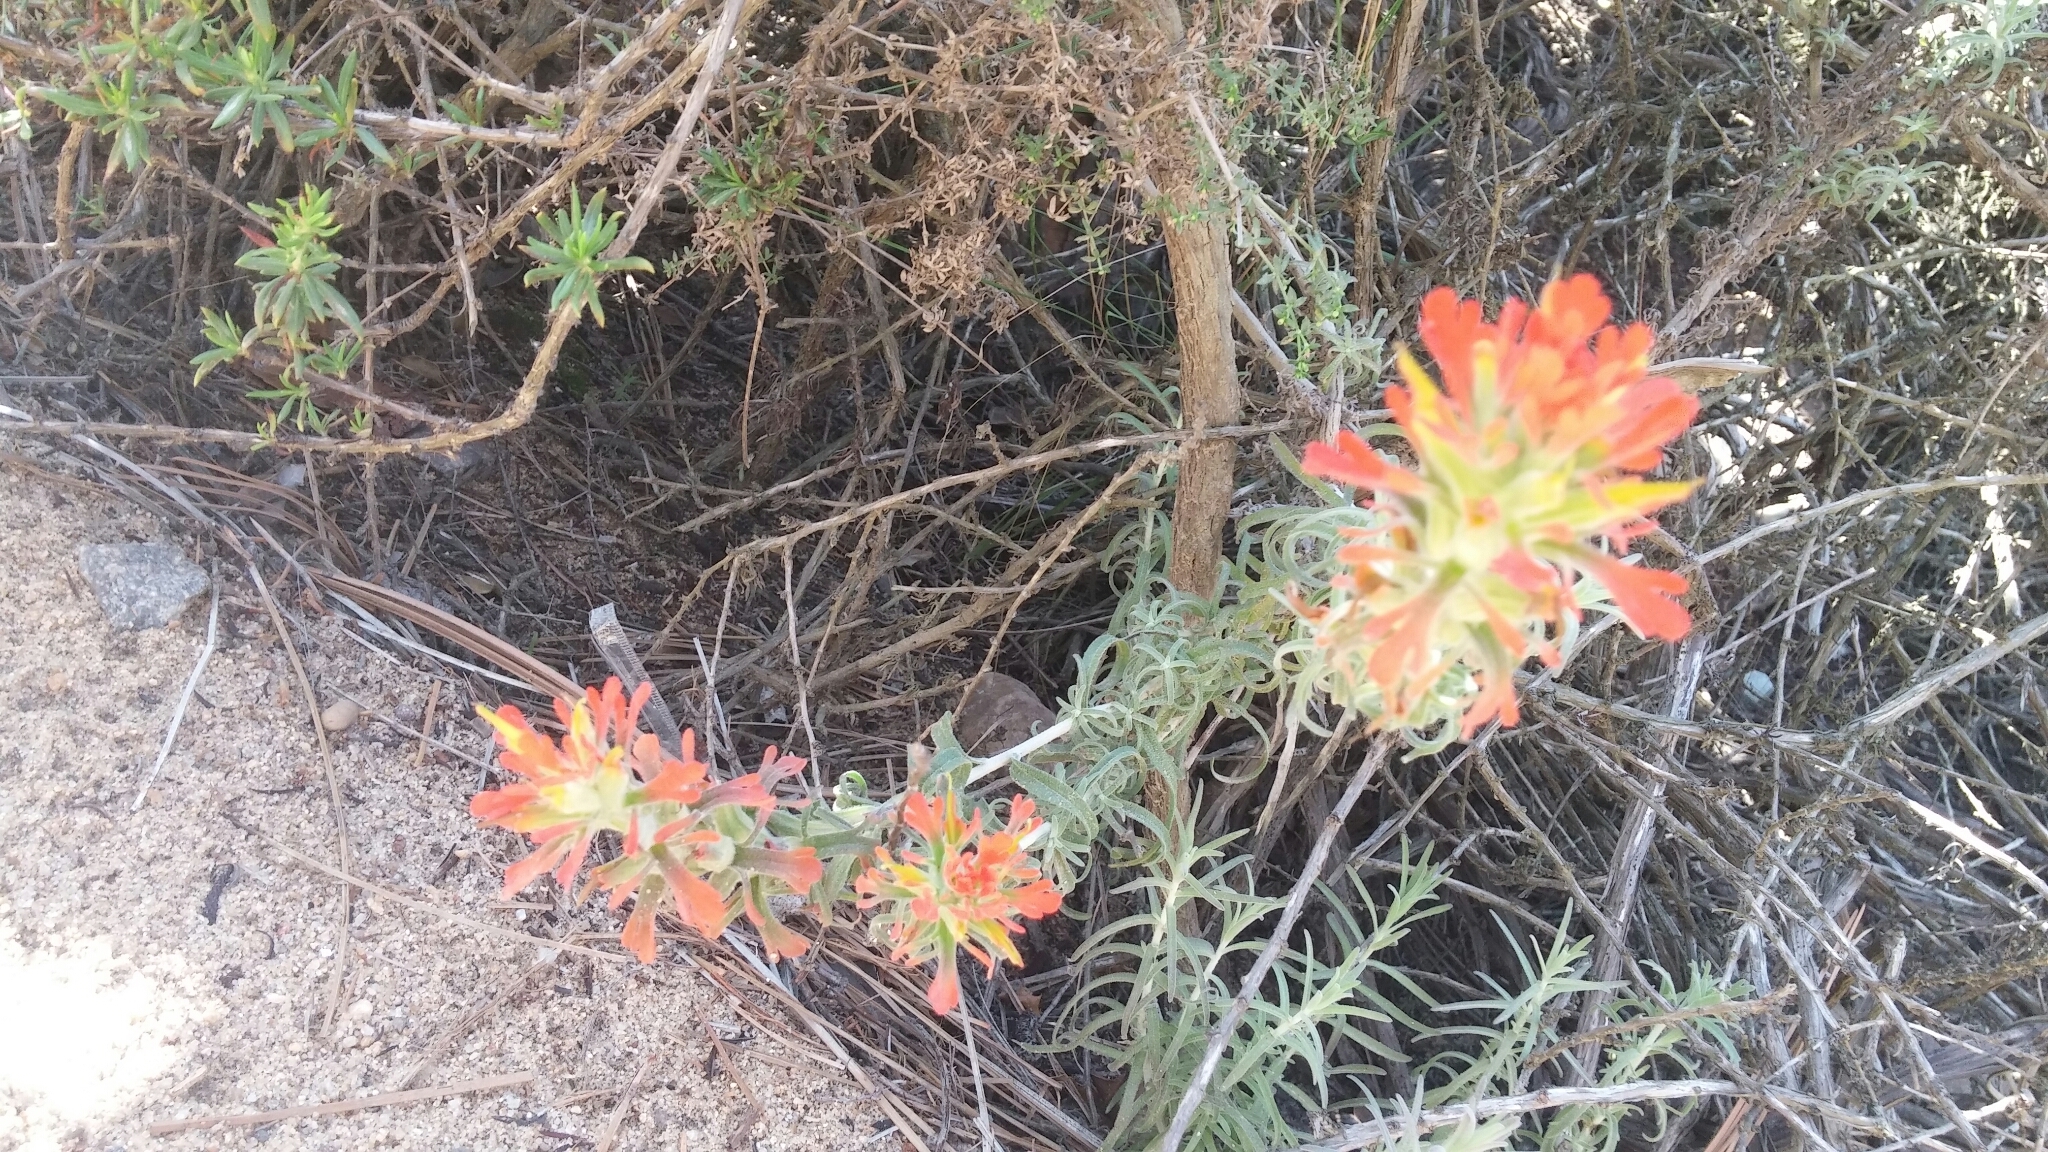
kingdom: Plantae
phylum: Tracheophyta
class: Magnoliopsida
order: Lamiales
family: Orobanchaceae
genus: Castilleja
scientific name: Castilleja foliolosa
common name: Woolly indian paintbrush
